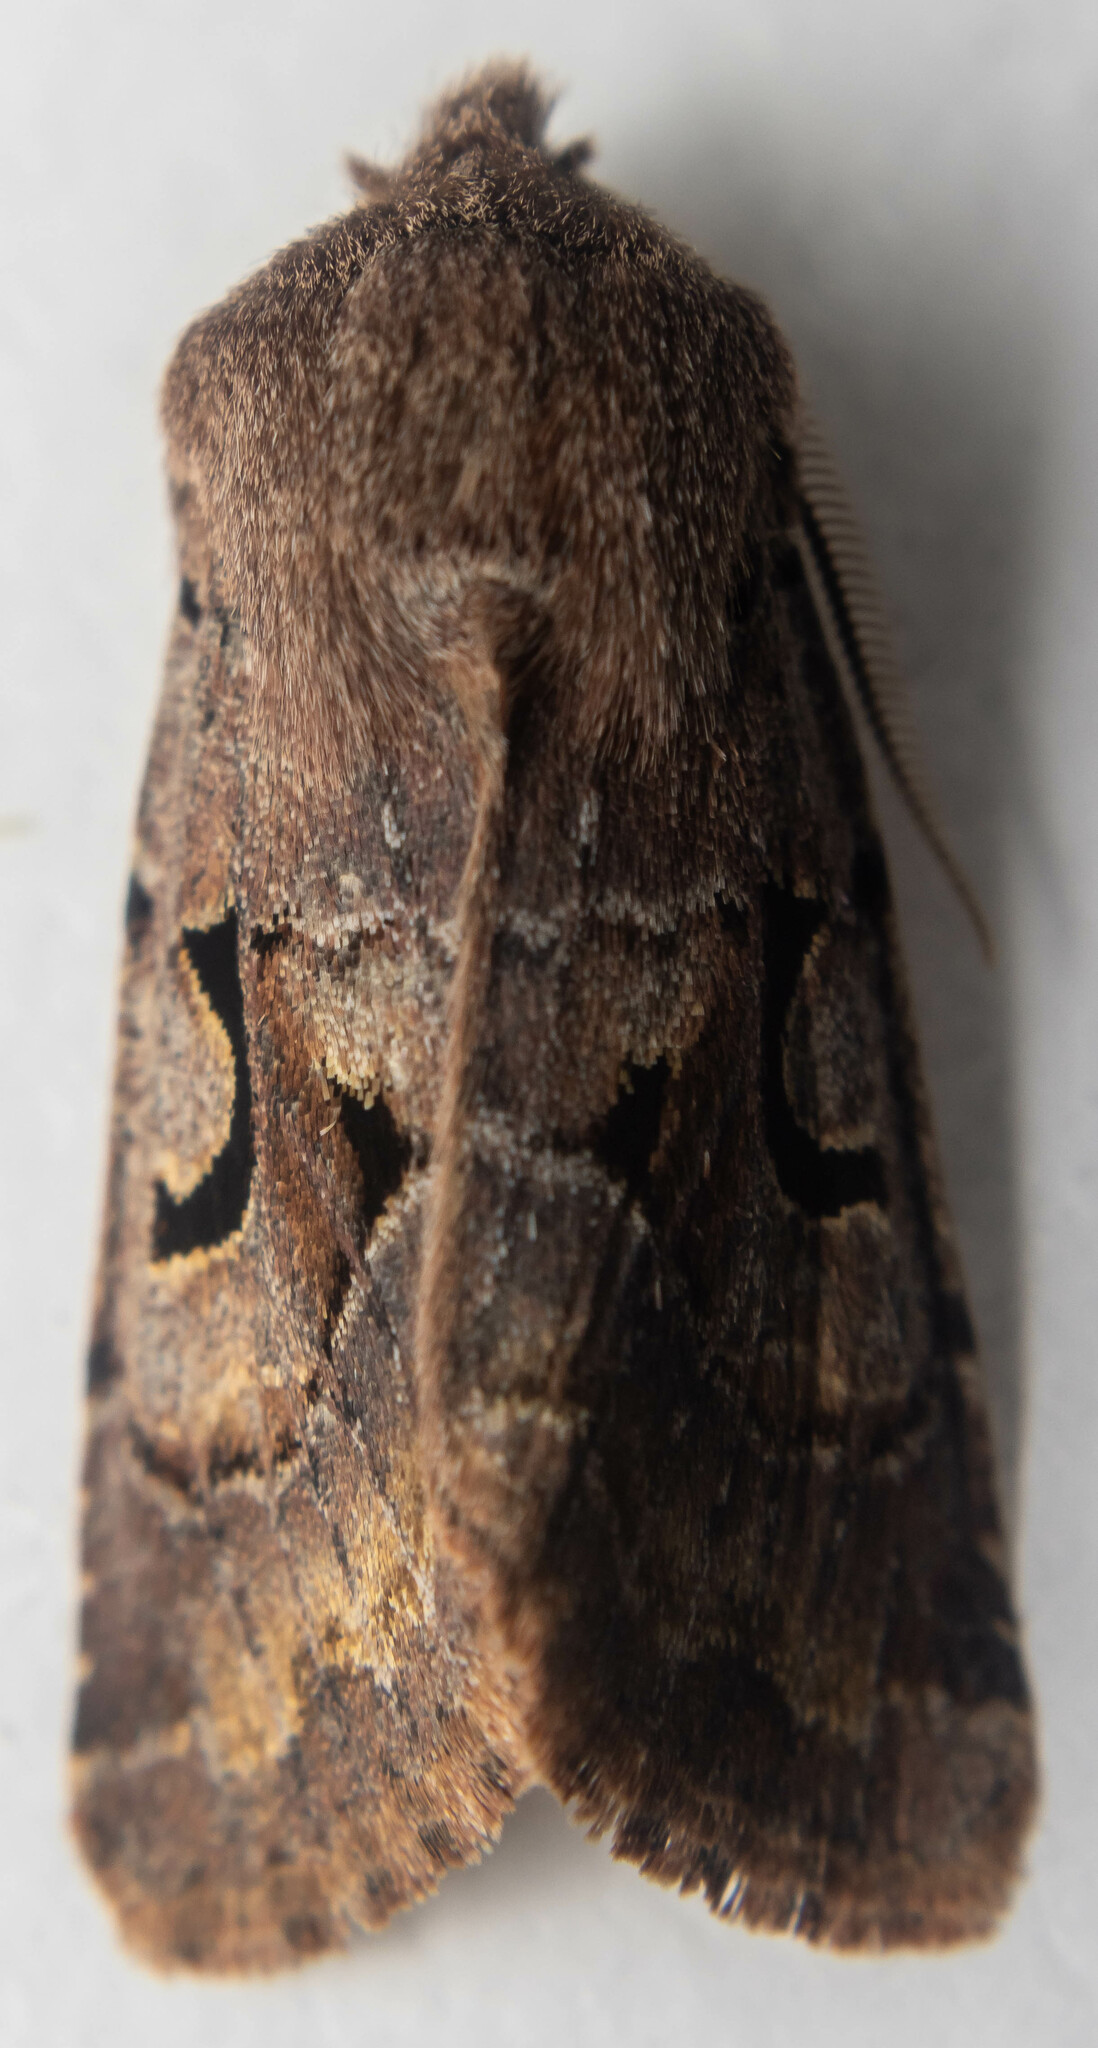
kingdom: Animalia
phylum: Arthropoda
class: Insecta
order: Lepidoptera
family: Noctuidae
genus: Orthosia
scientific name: Orthosia gothica
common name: Hebrew character
